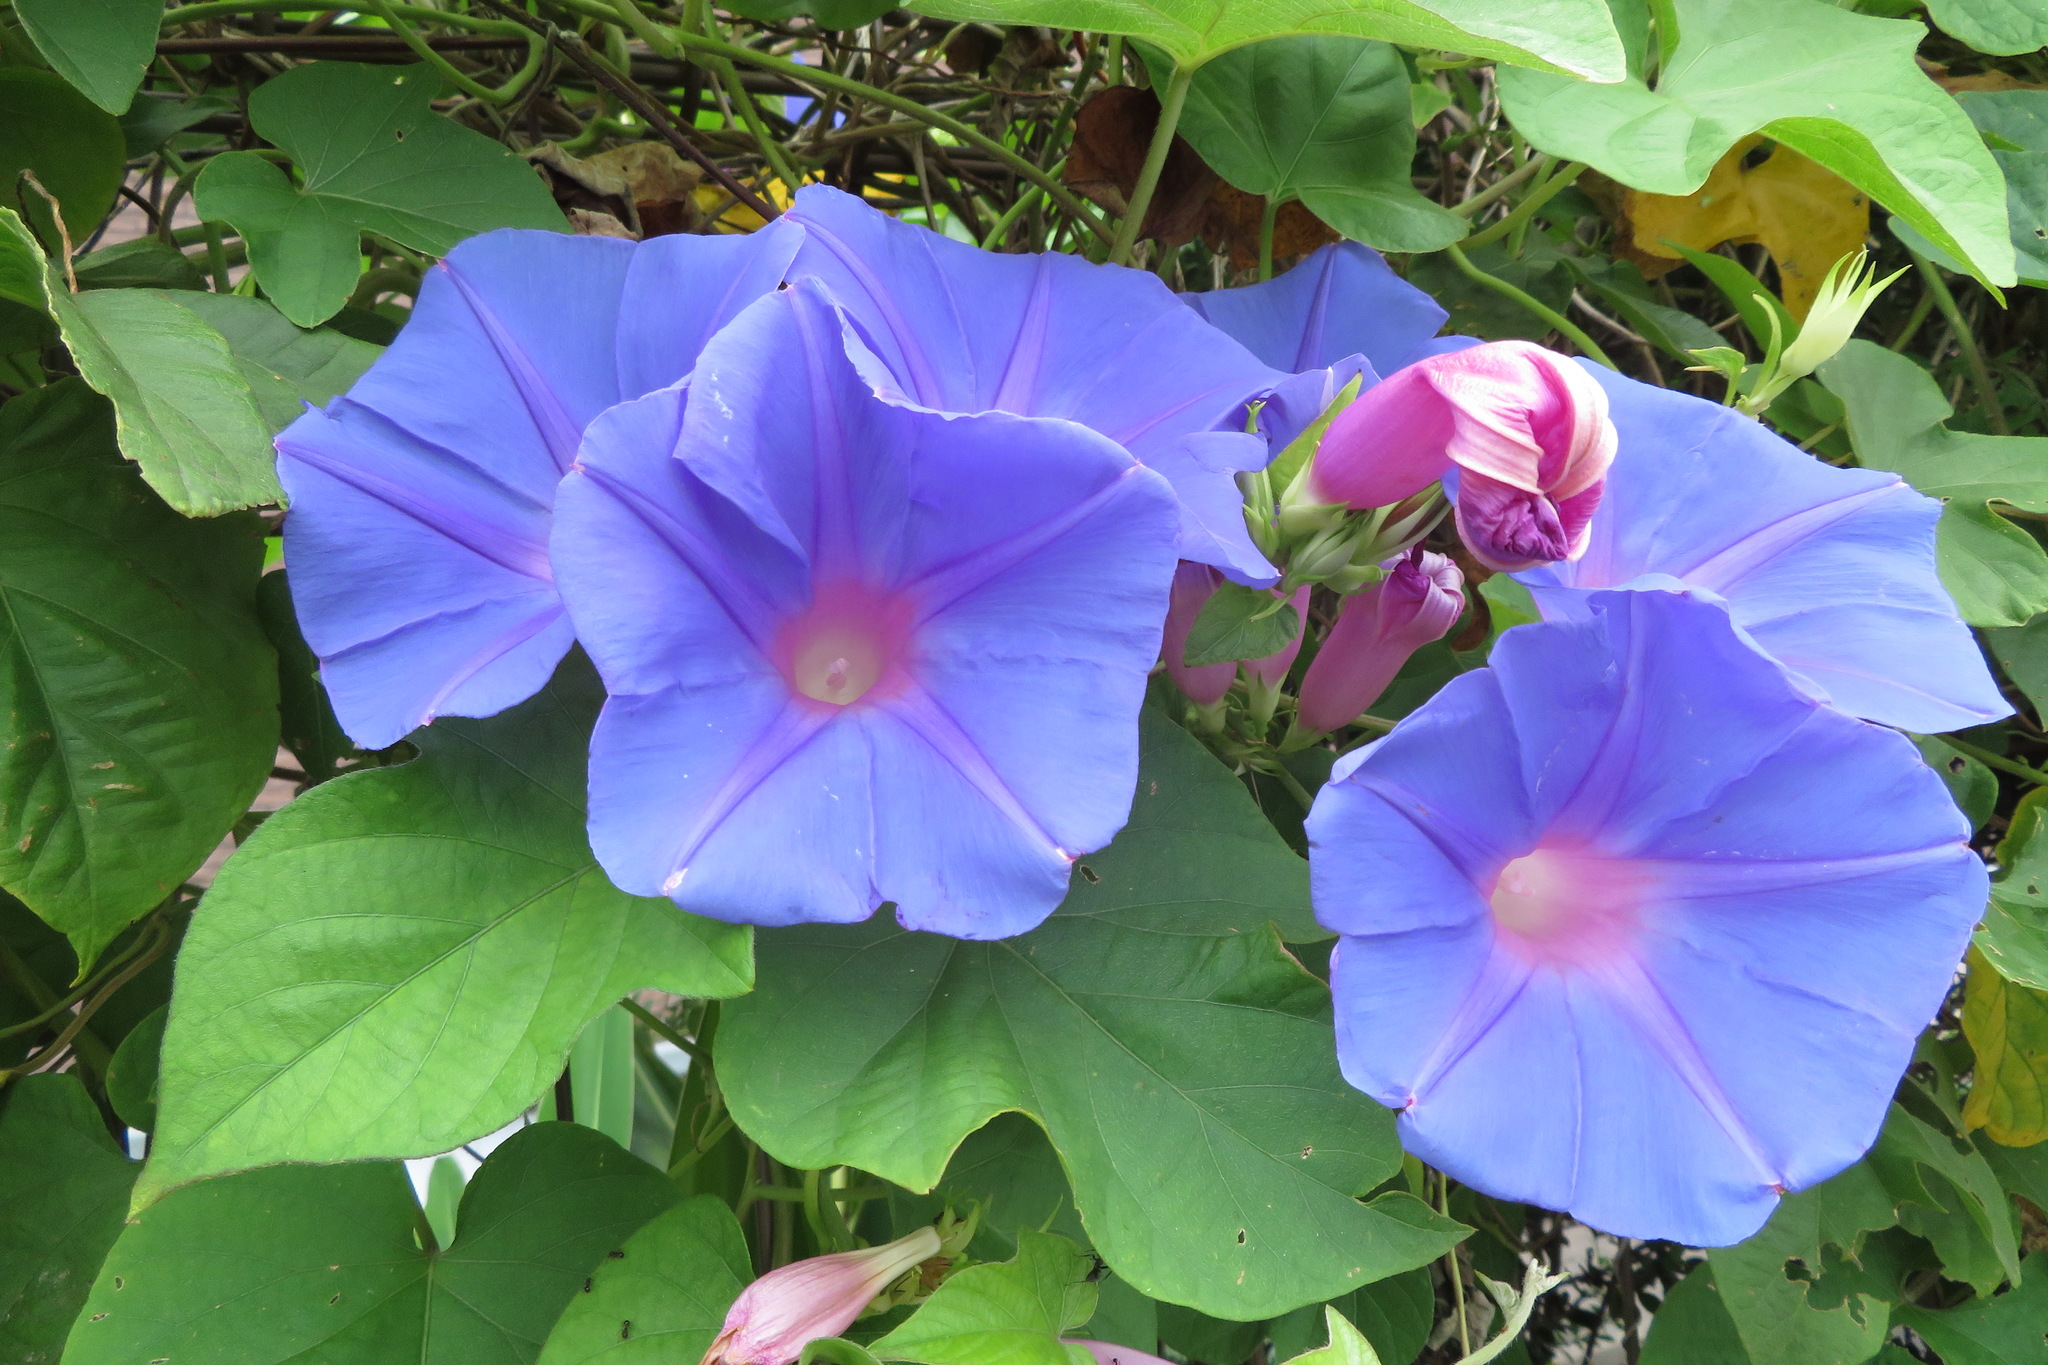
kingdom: Plantae
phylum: Tracheophyta
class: Magnoliopsida
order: Solanales
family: Convolvulaceae
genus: Ipomoea
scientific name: Ipomoea indica
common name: Blue dawnflower
